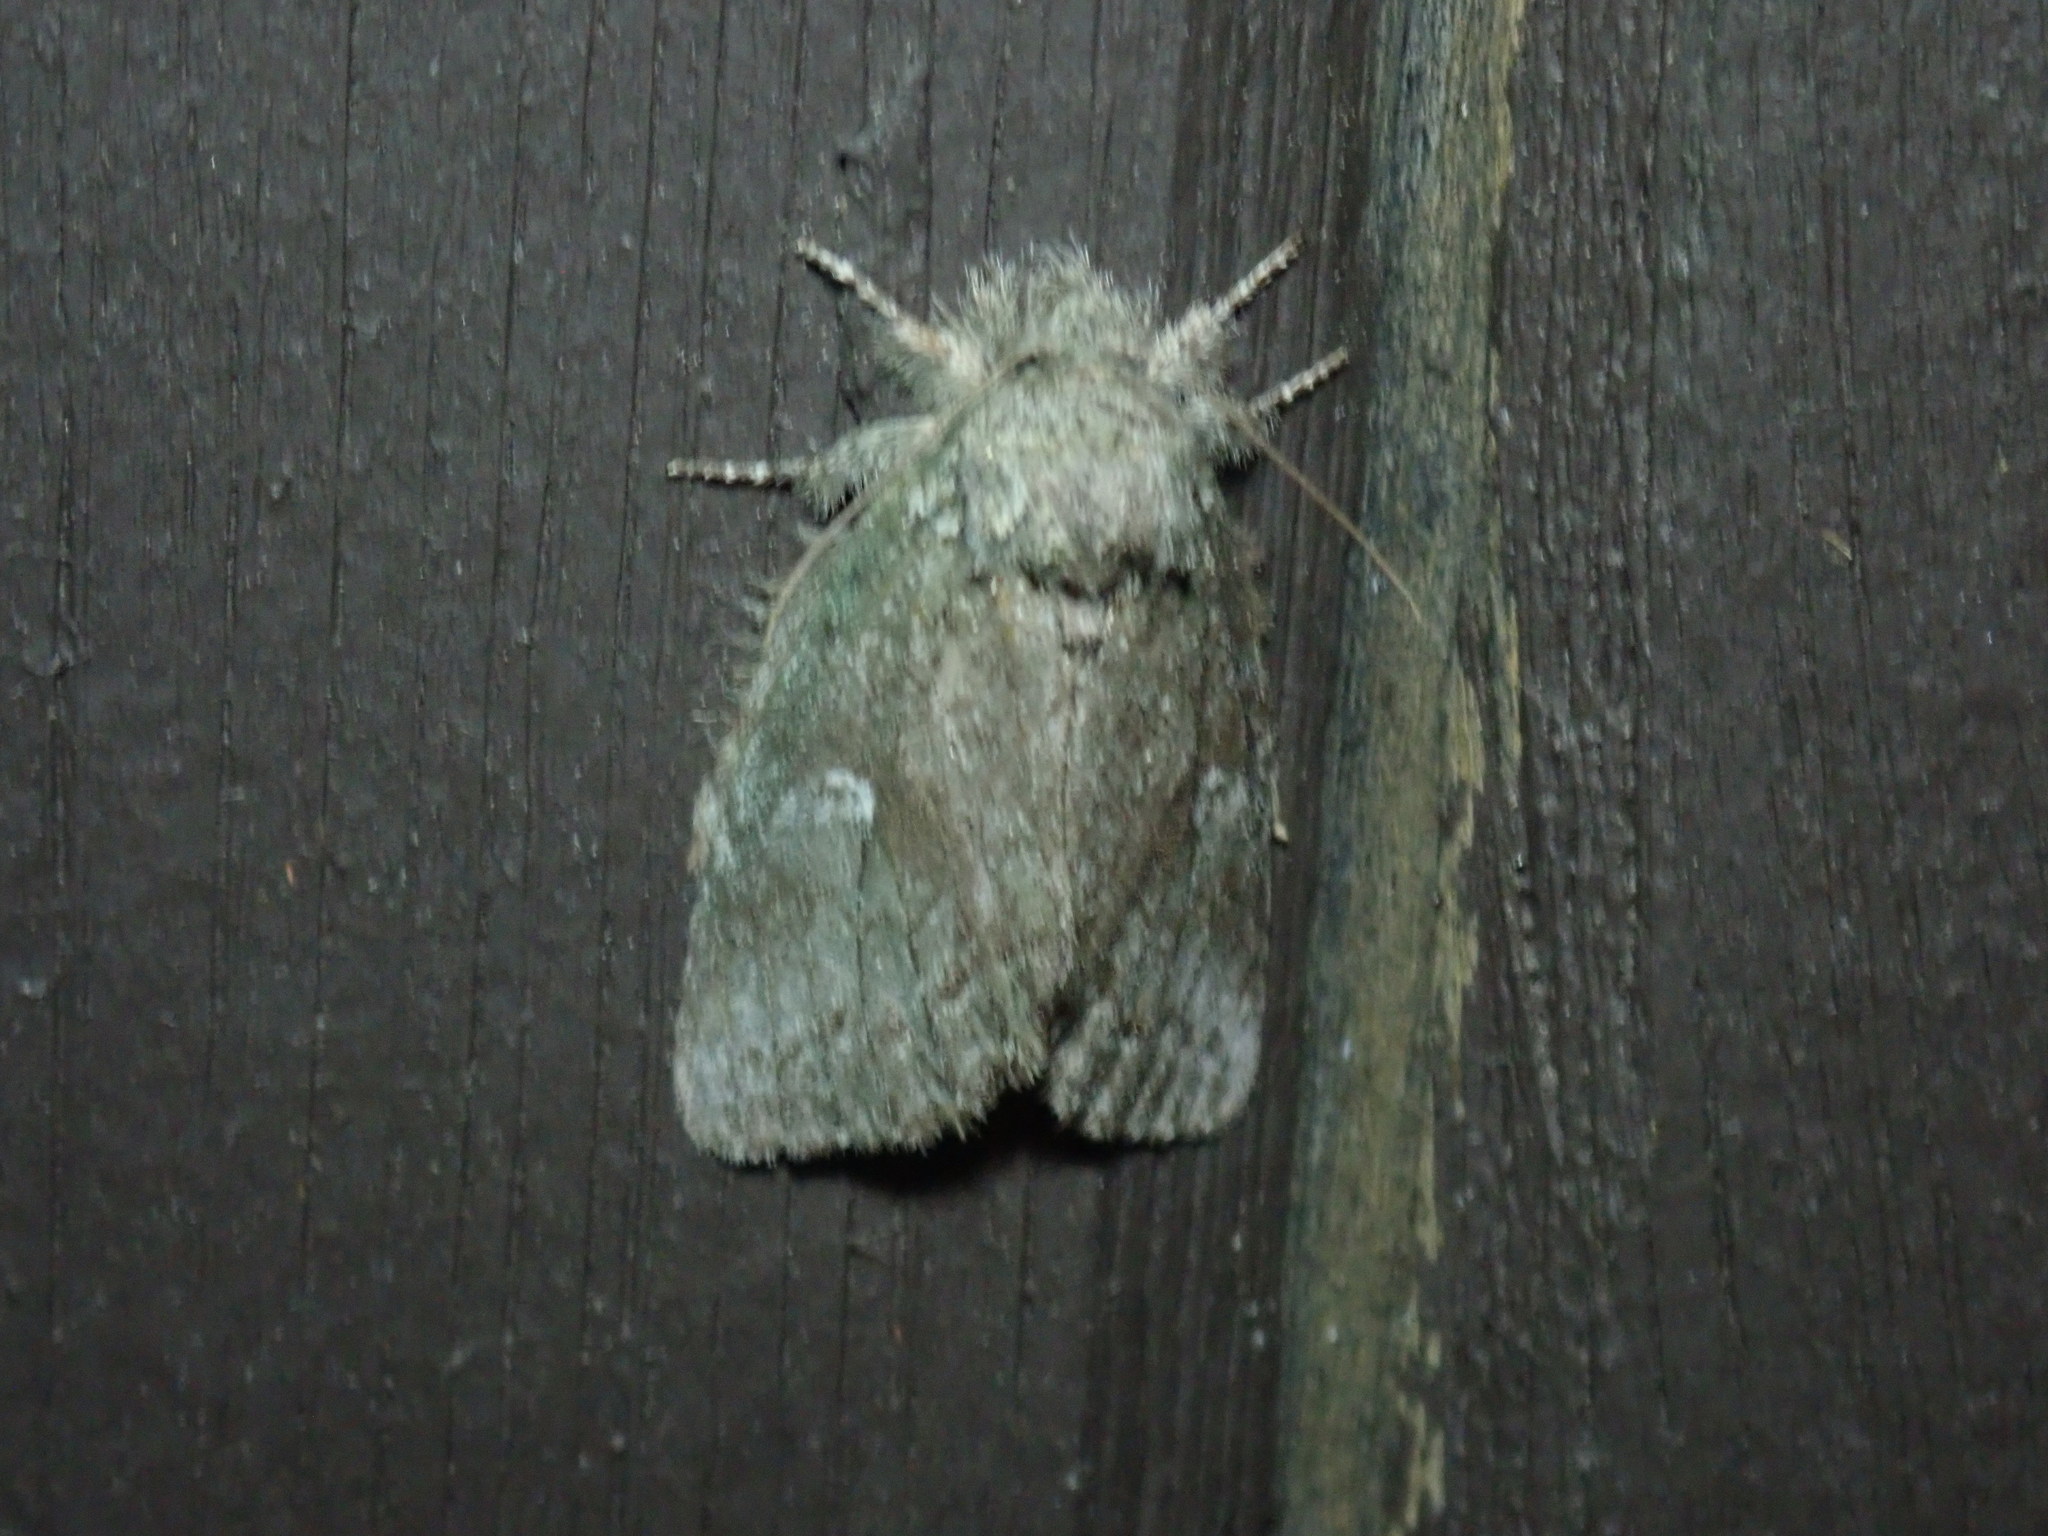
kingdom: Animalia
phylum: Arthropoda
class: Insecta
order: Lepidoptera
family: Notodontidae
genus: Disphragis
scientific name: Disphragis Cecrita guttivitta
